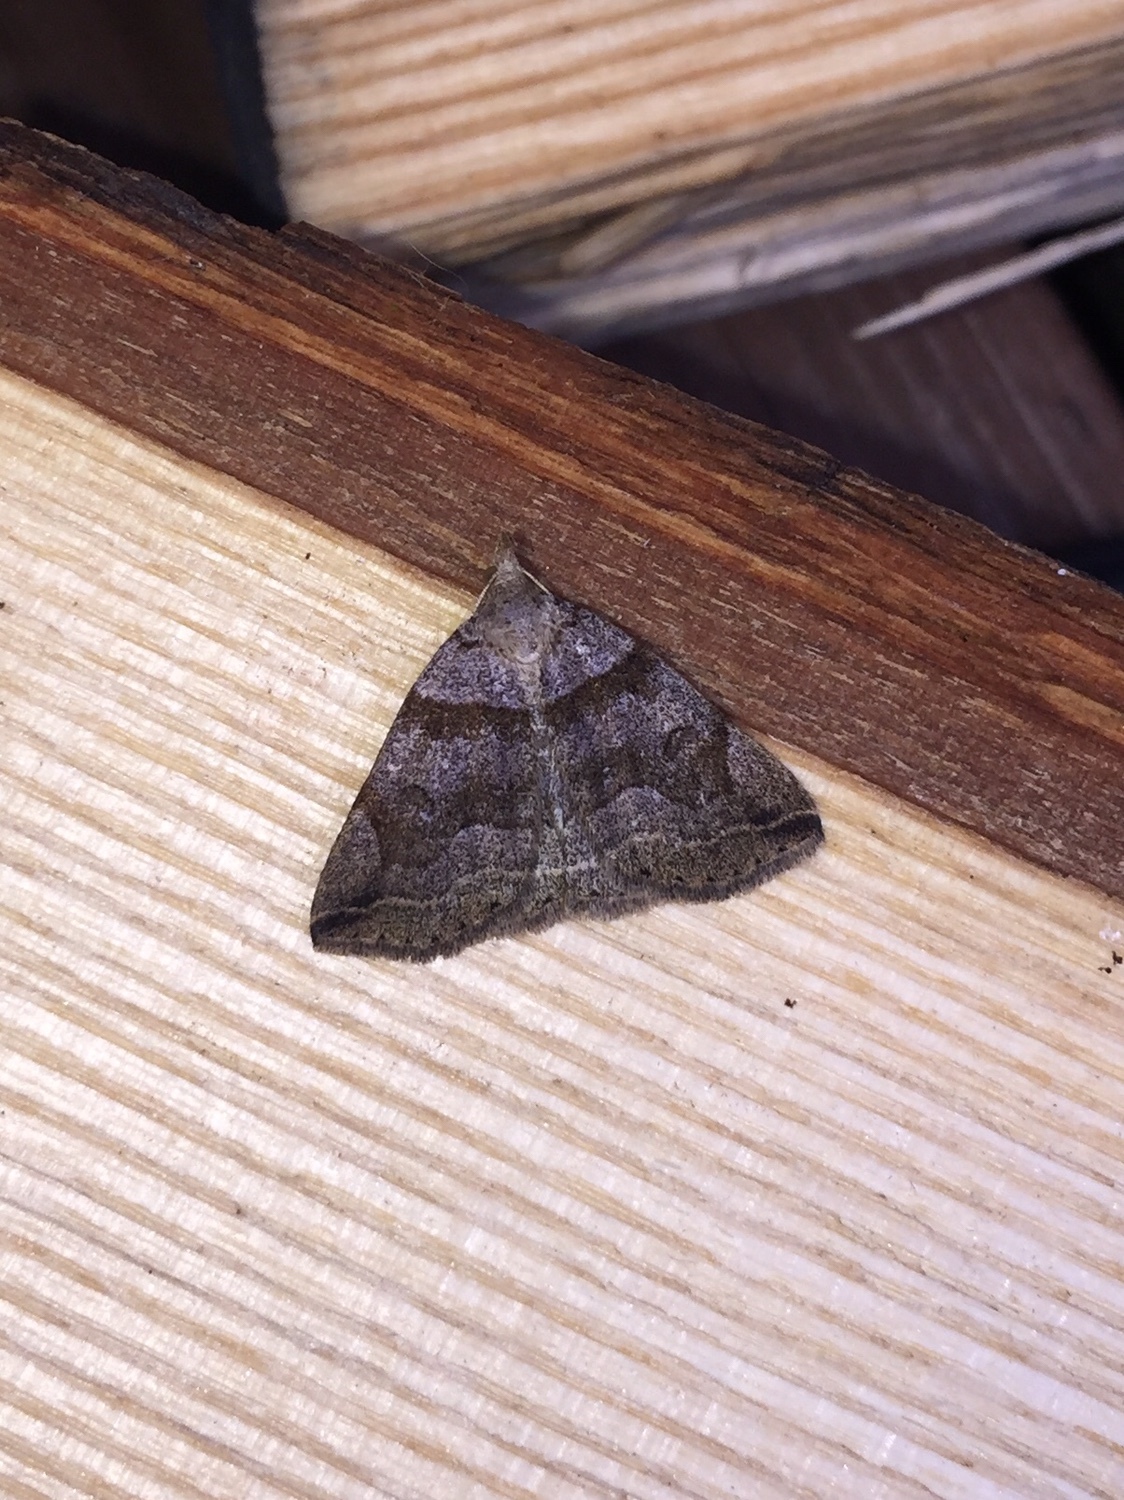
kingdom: Animalia
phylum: Arthropoda
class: Insecta
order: Lepidoptera
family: Erebidae
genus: Zanclognatha
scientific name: Zanclognatha laevigata
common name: Variable fan-foot
